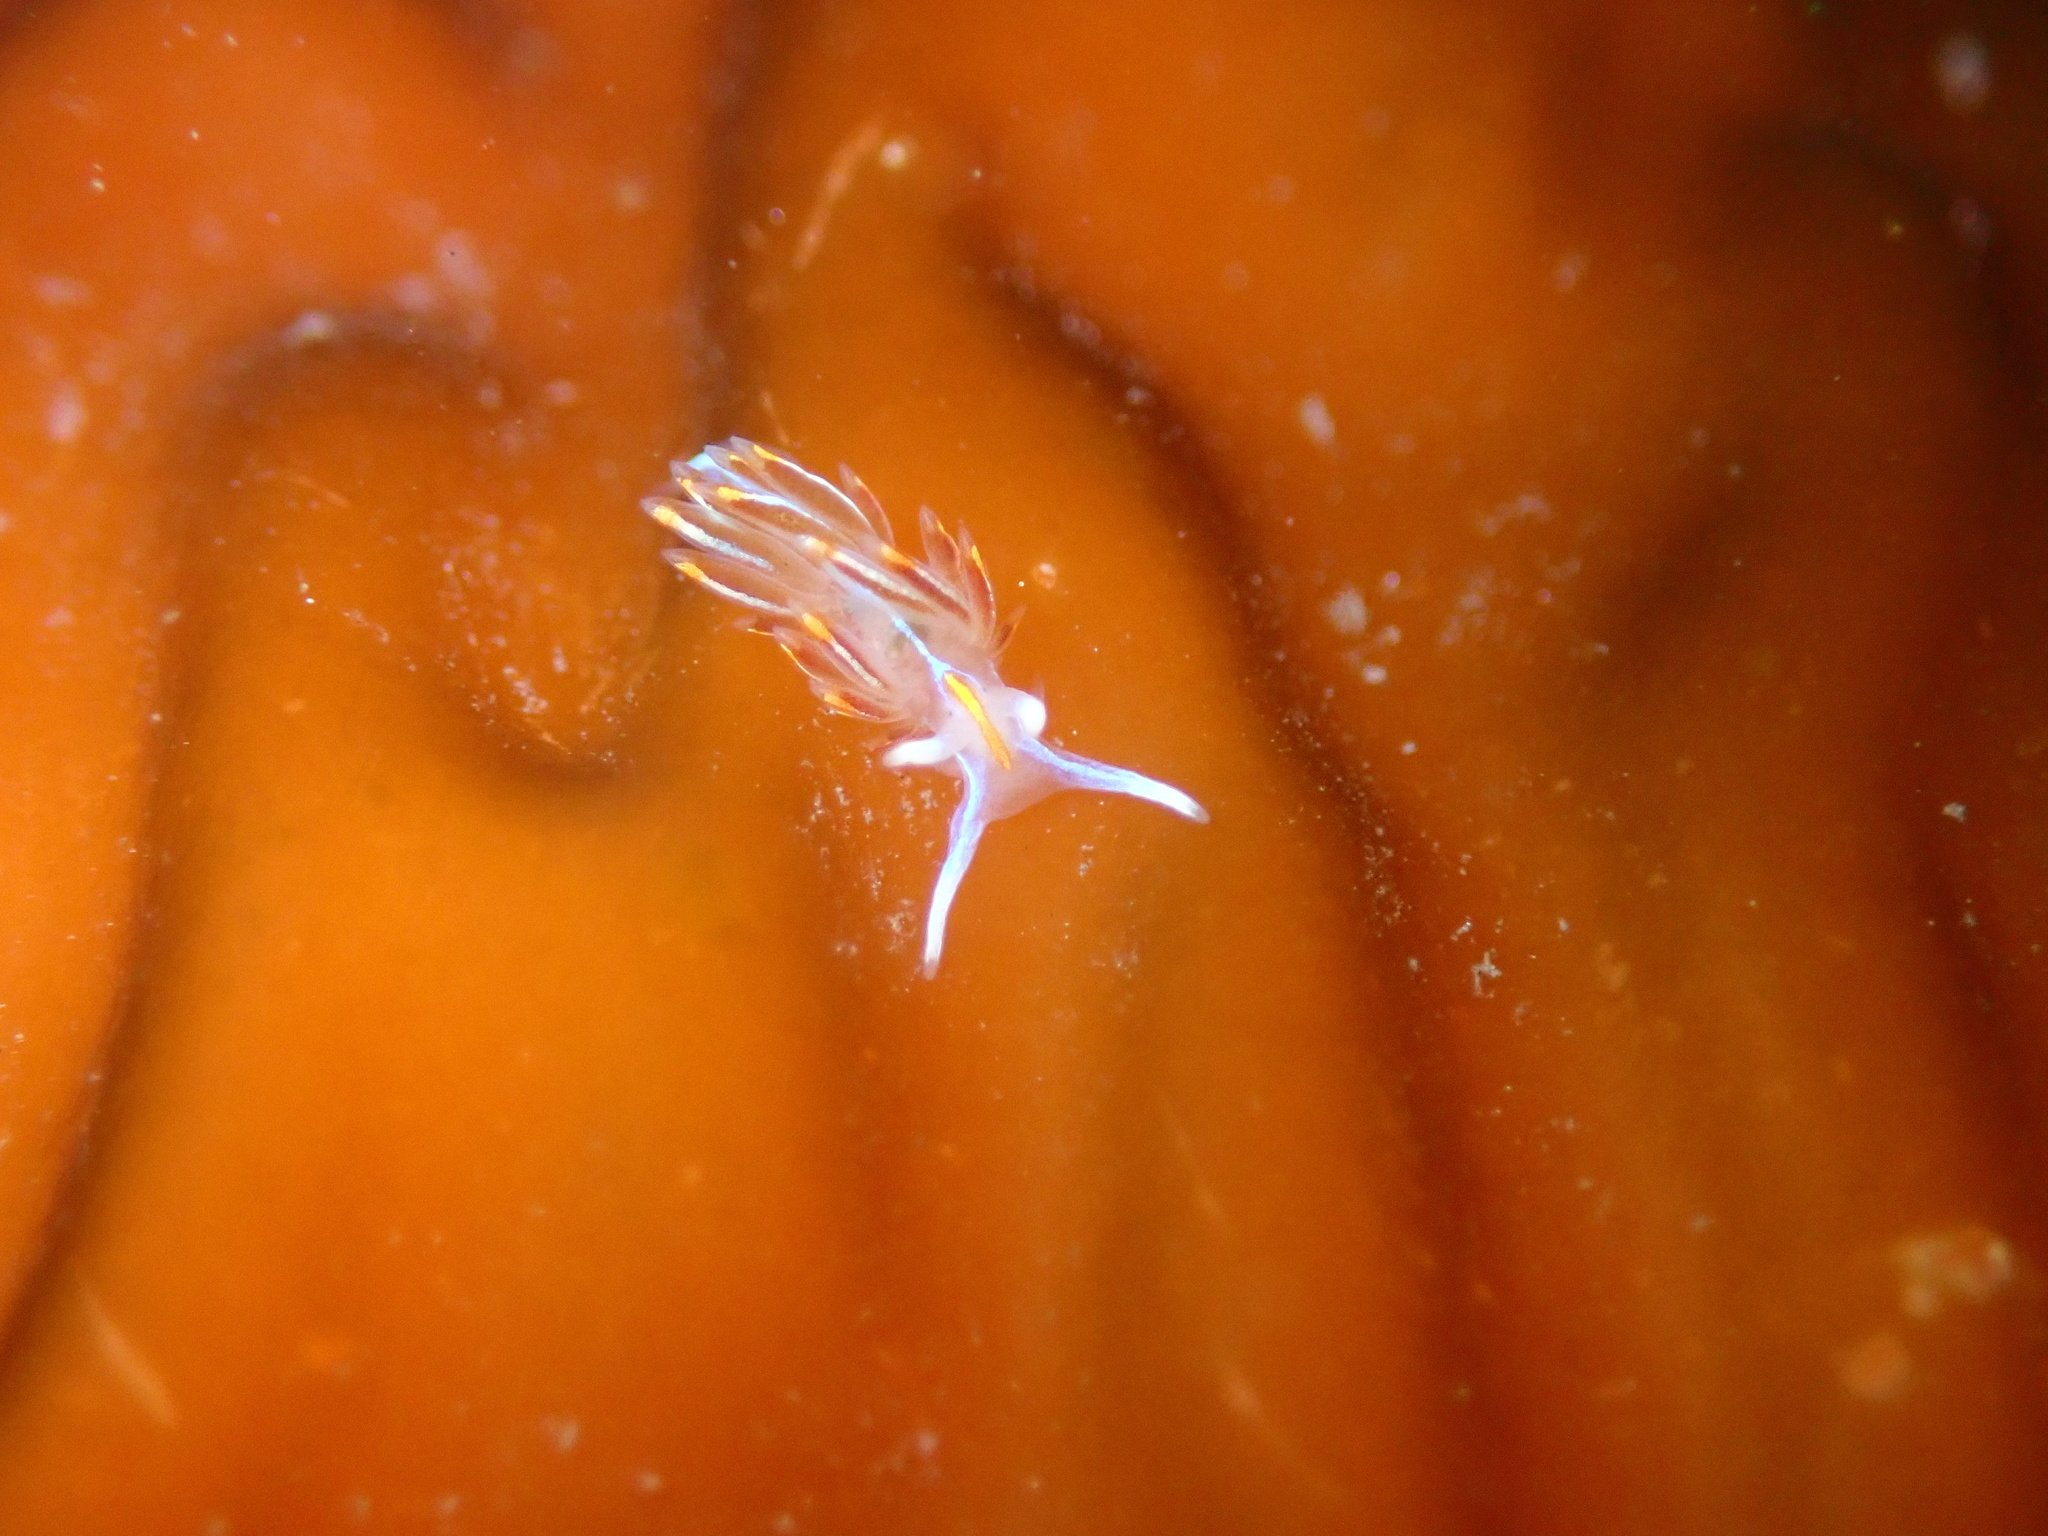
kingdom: Animalia
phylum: Mollusca
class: Gastropoda
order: Nudibranchia
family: Myrrhinidae
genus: Hermissenda
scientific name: Hermissenda crassicornis
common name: Hermissenda
